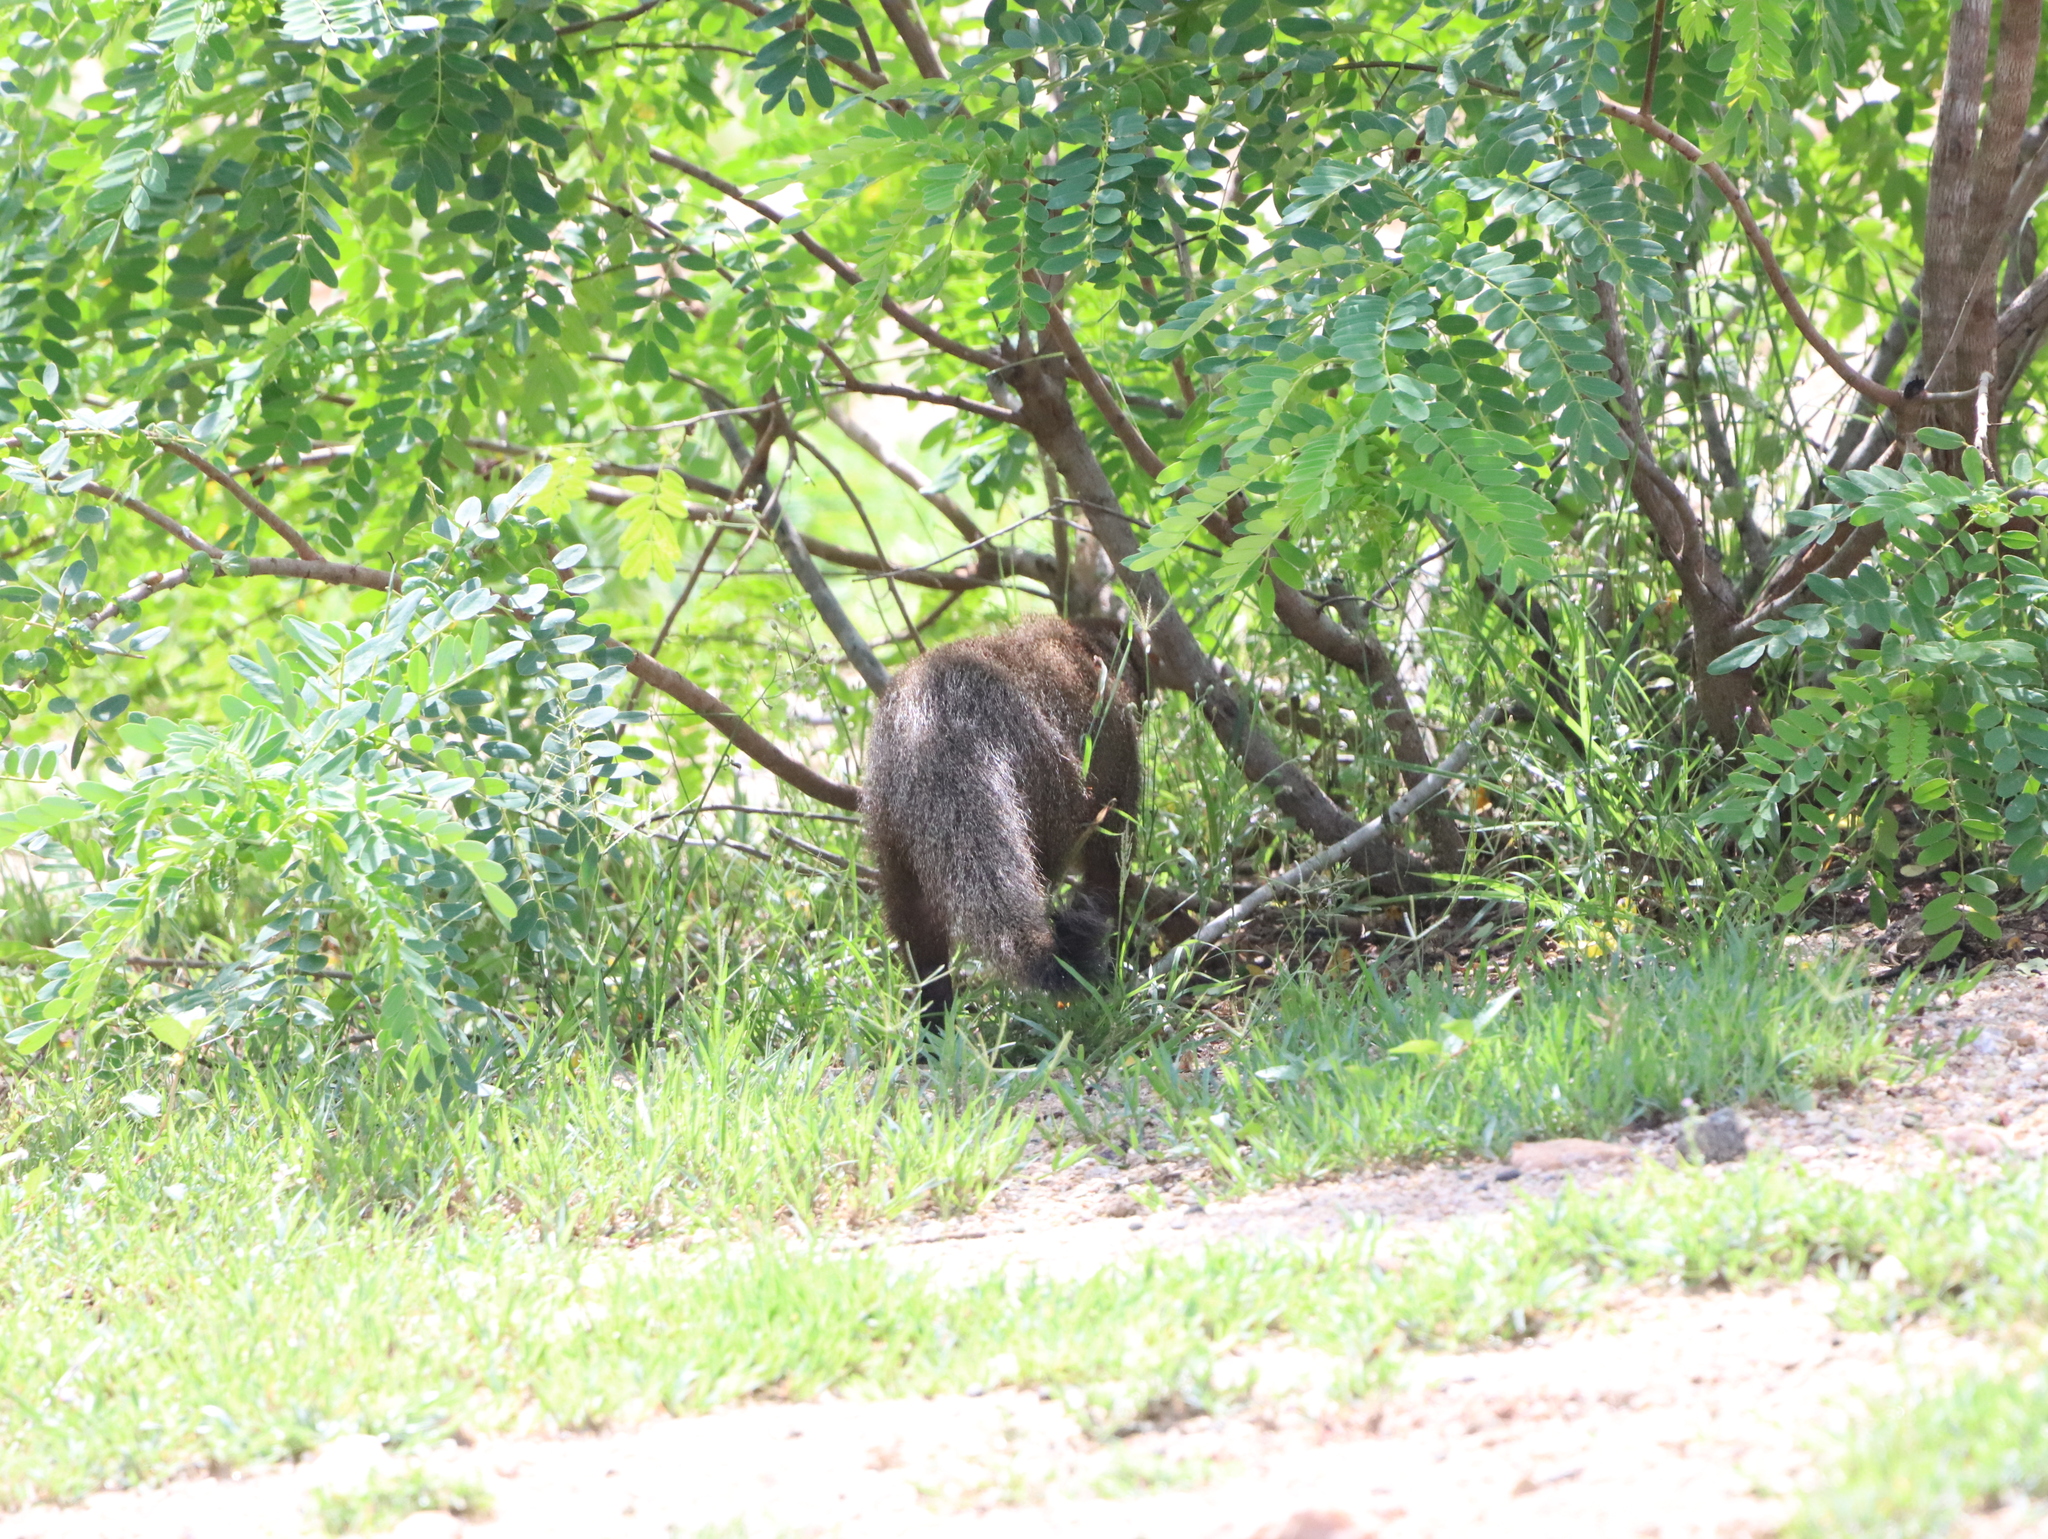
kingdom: Animalia
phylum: Chordata
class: Mammalia
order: Carnivora
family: Herpestidae
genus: Herpestes
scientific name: Herpestes smithii
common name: Ruddy mongoose
